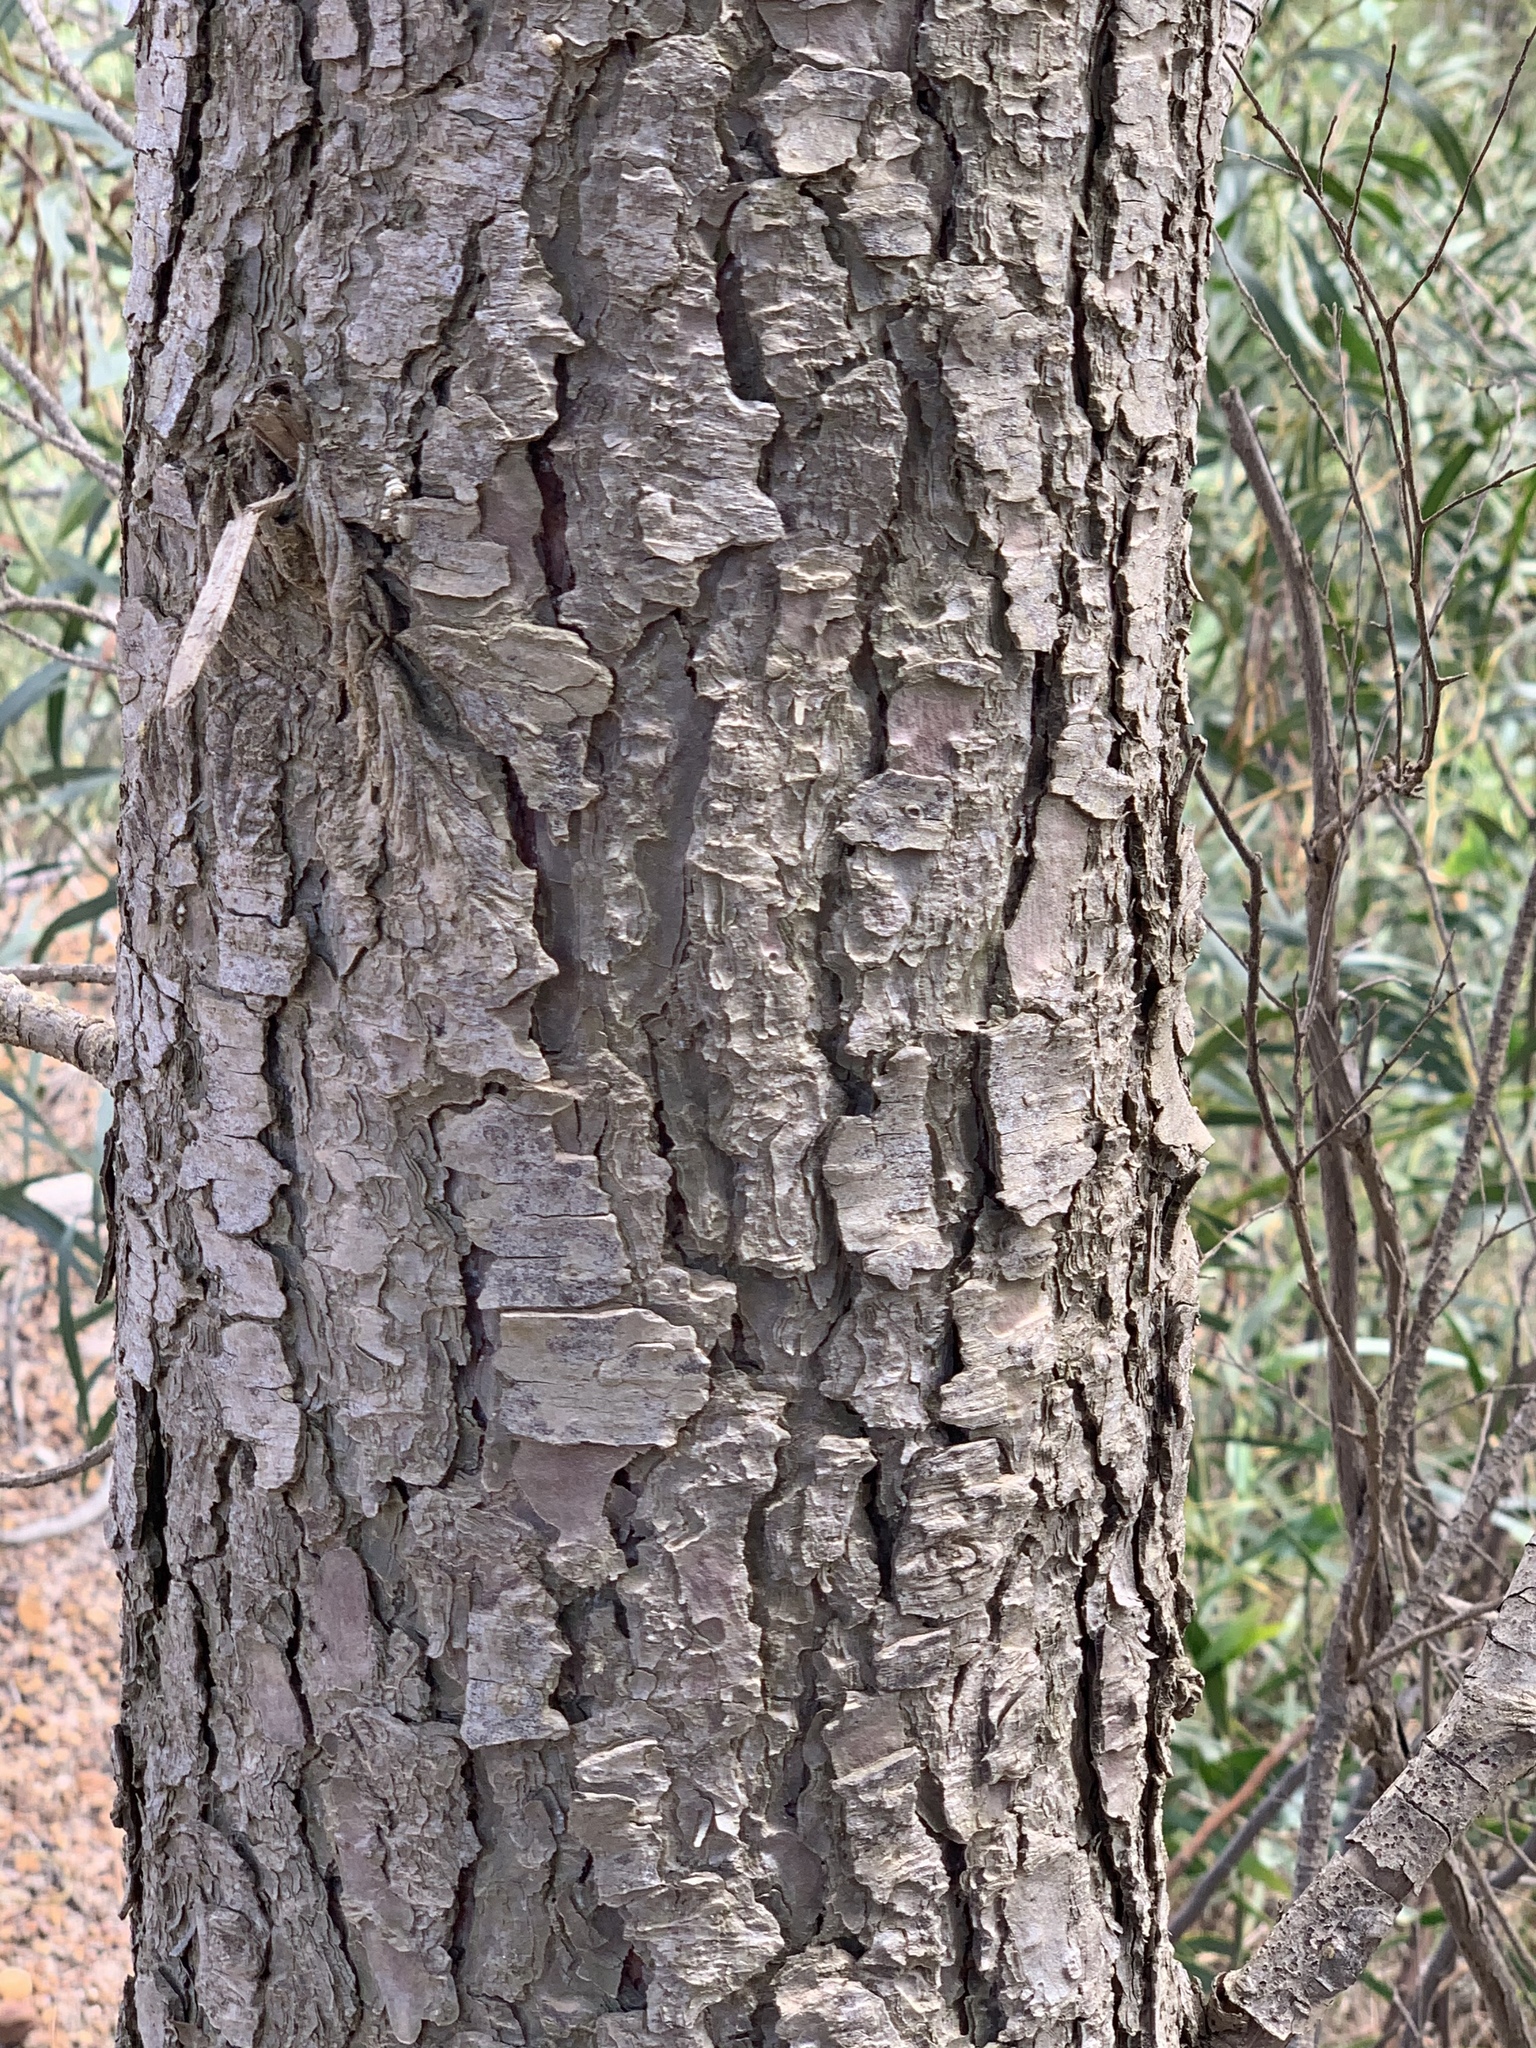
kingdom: Plantae
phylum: Tracheophyta
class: Pinopsida
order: Pinales
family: Pinaceae
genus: Pinus
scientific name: Pinus pinaster
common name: Maritime pine
